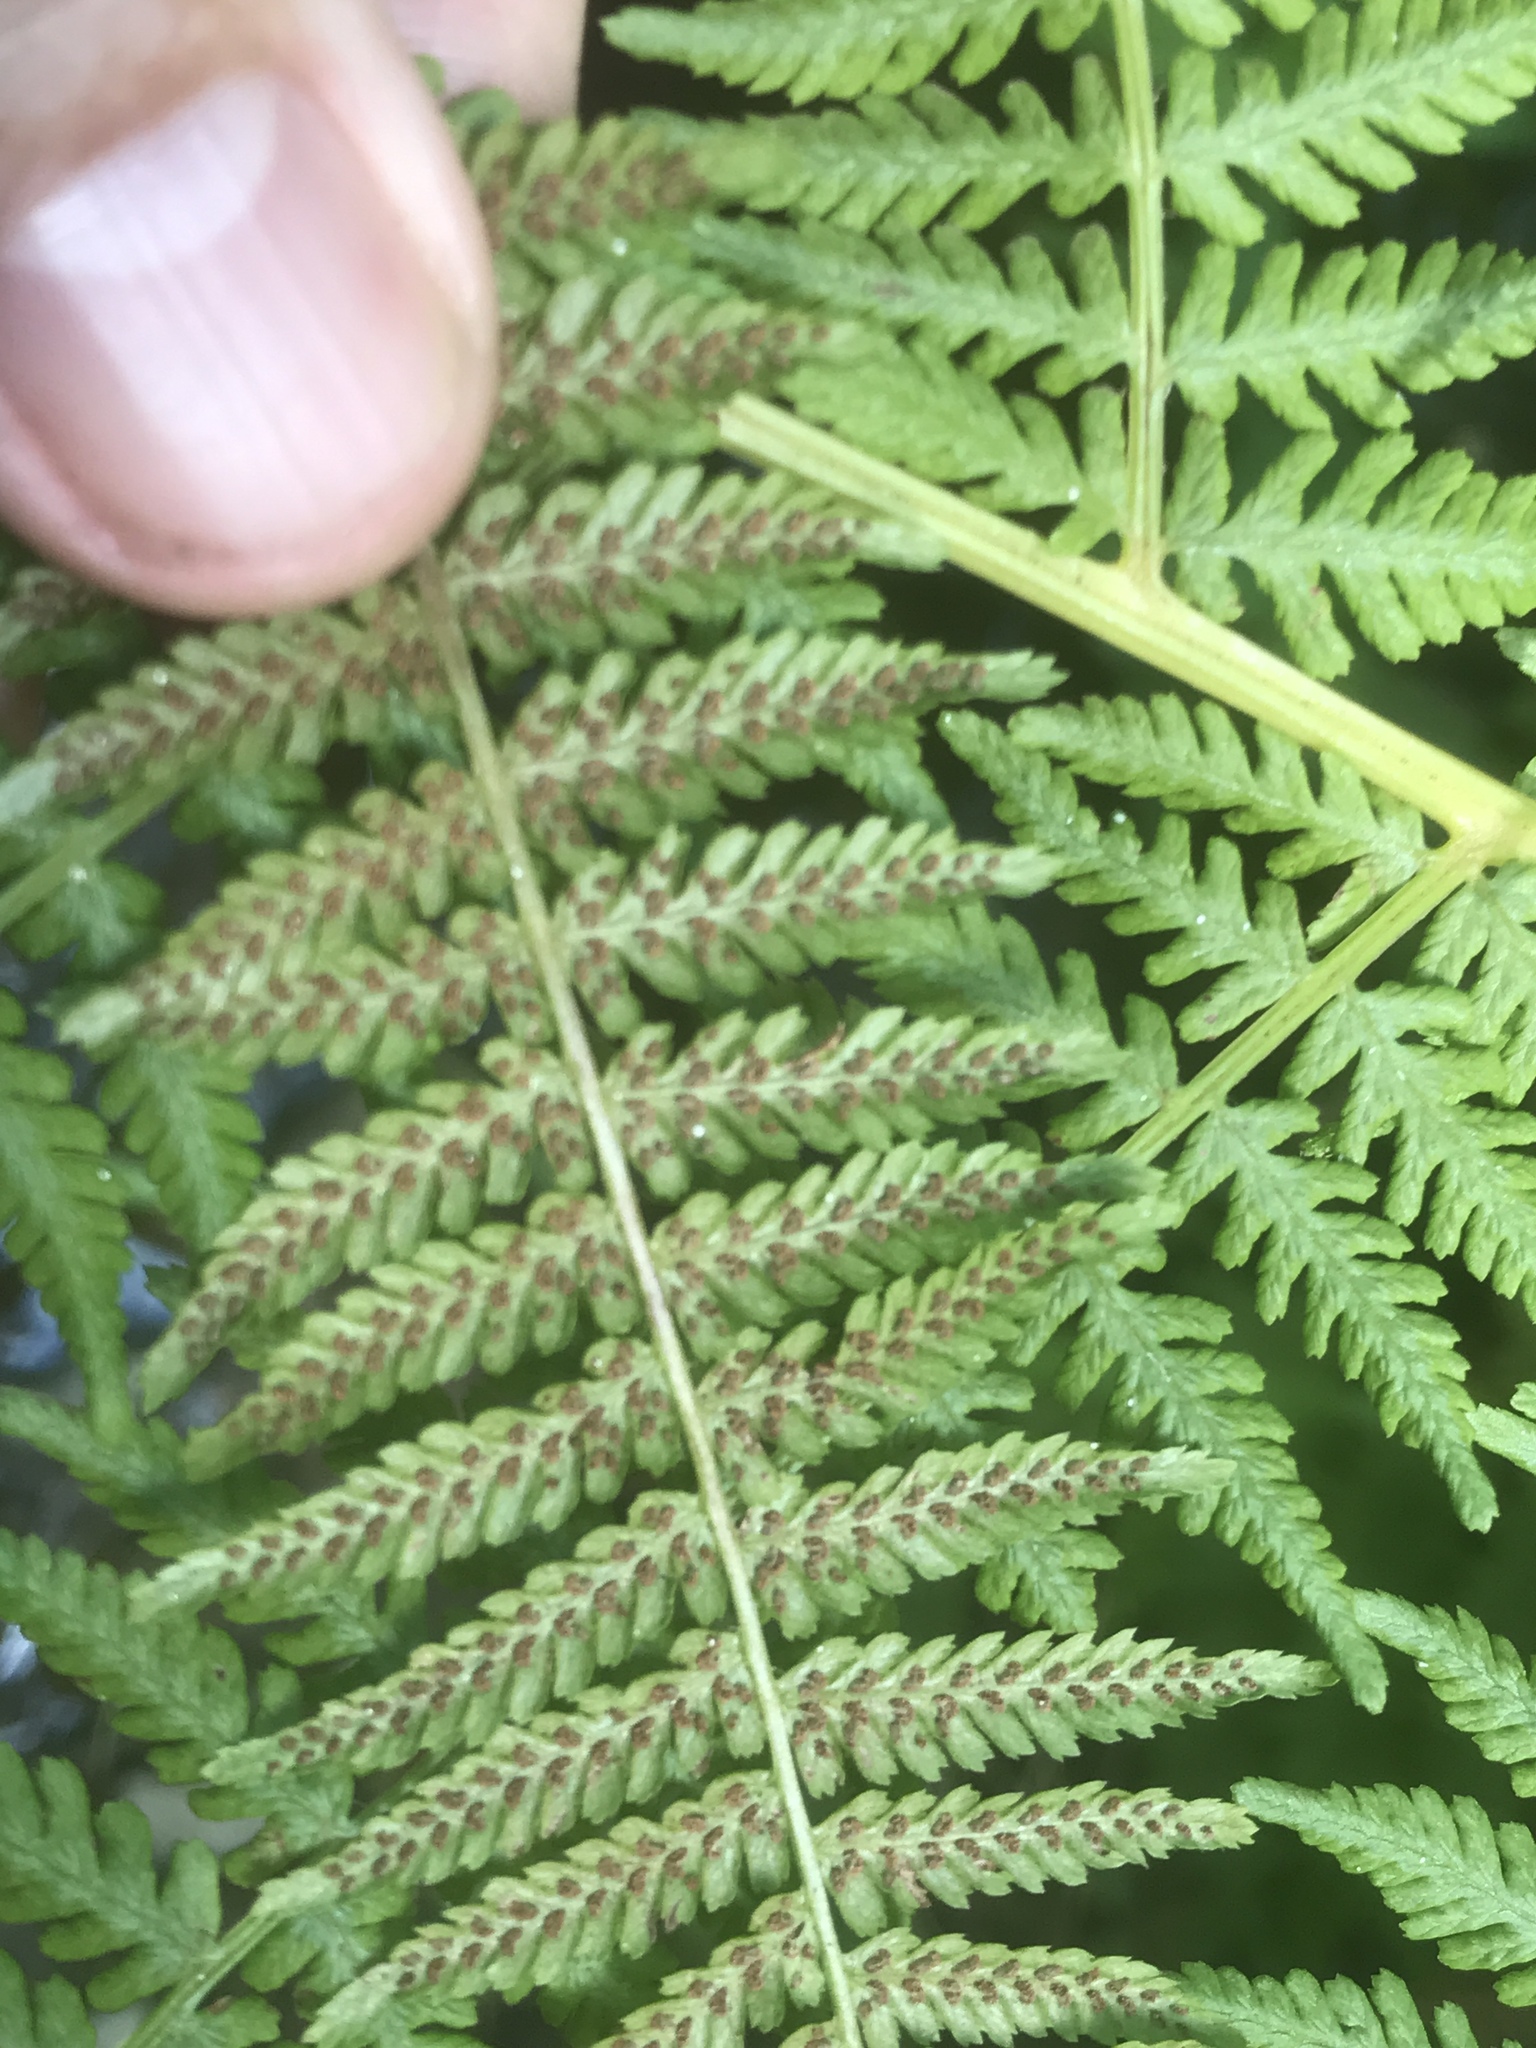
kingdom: Plantae
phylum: Tracheophyta
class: Polypodiopsida
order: Polypodiales
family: Athyriaceae
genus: Athyrium
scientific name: Athyrium cyclosorum
